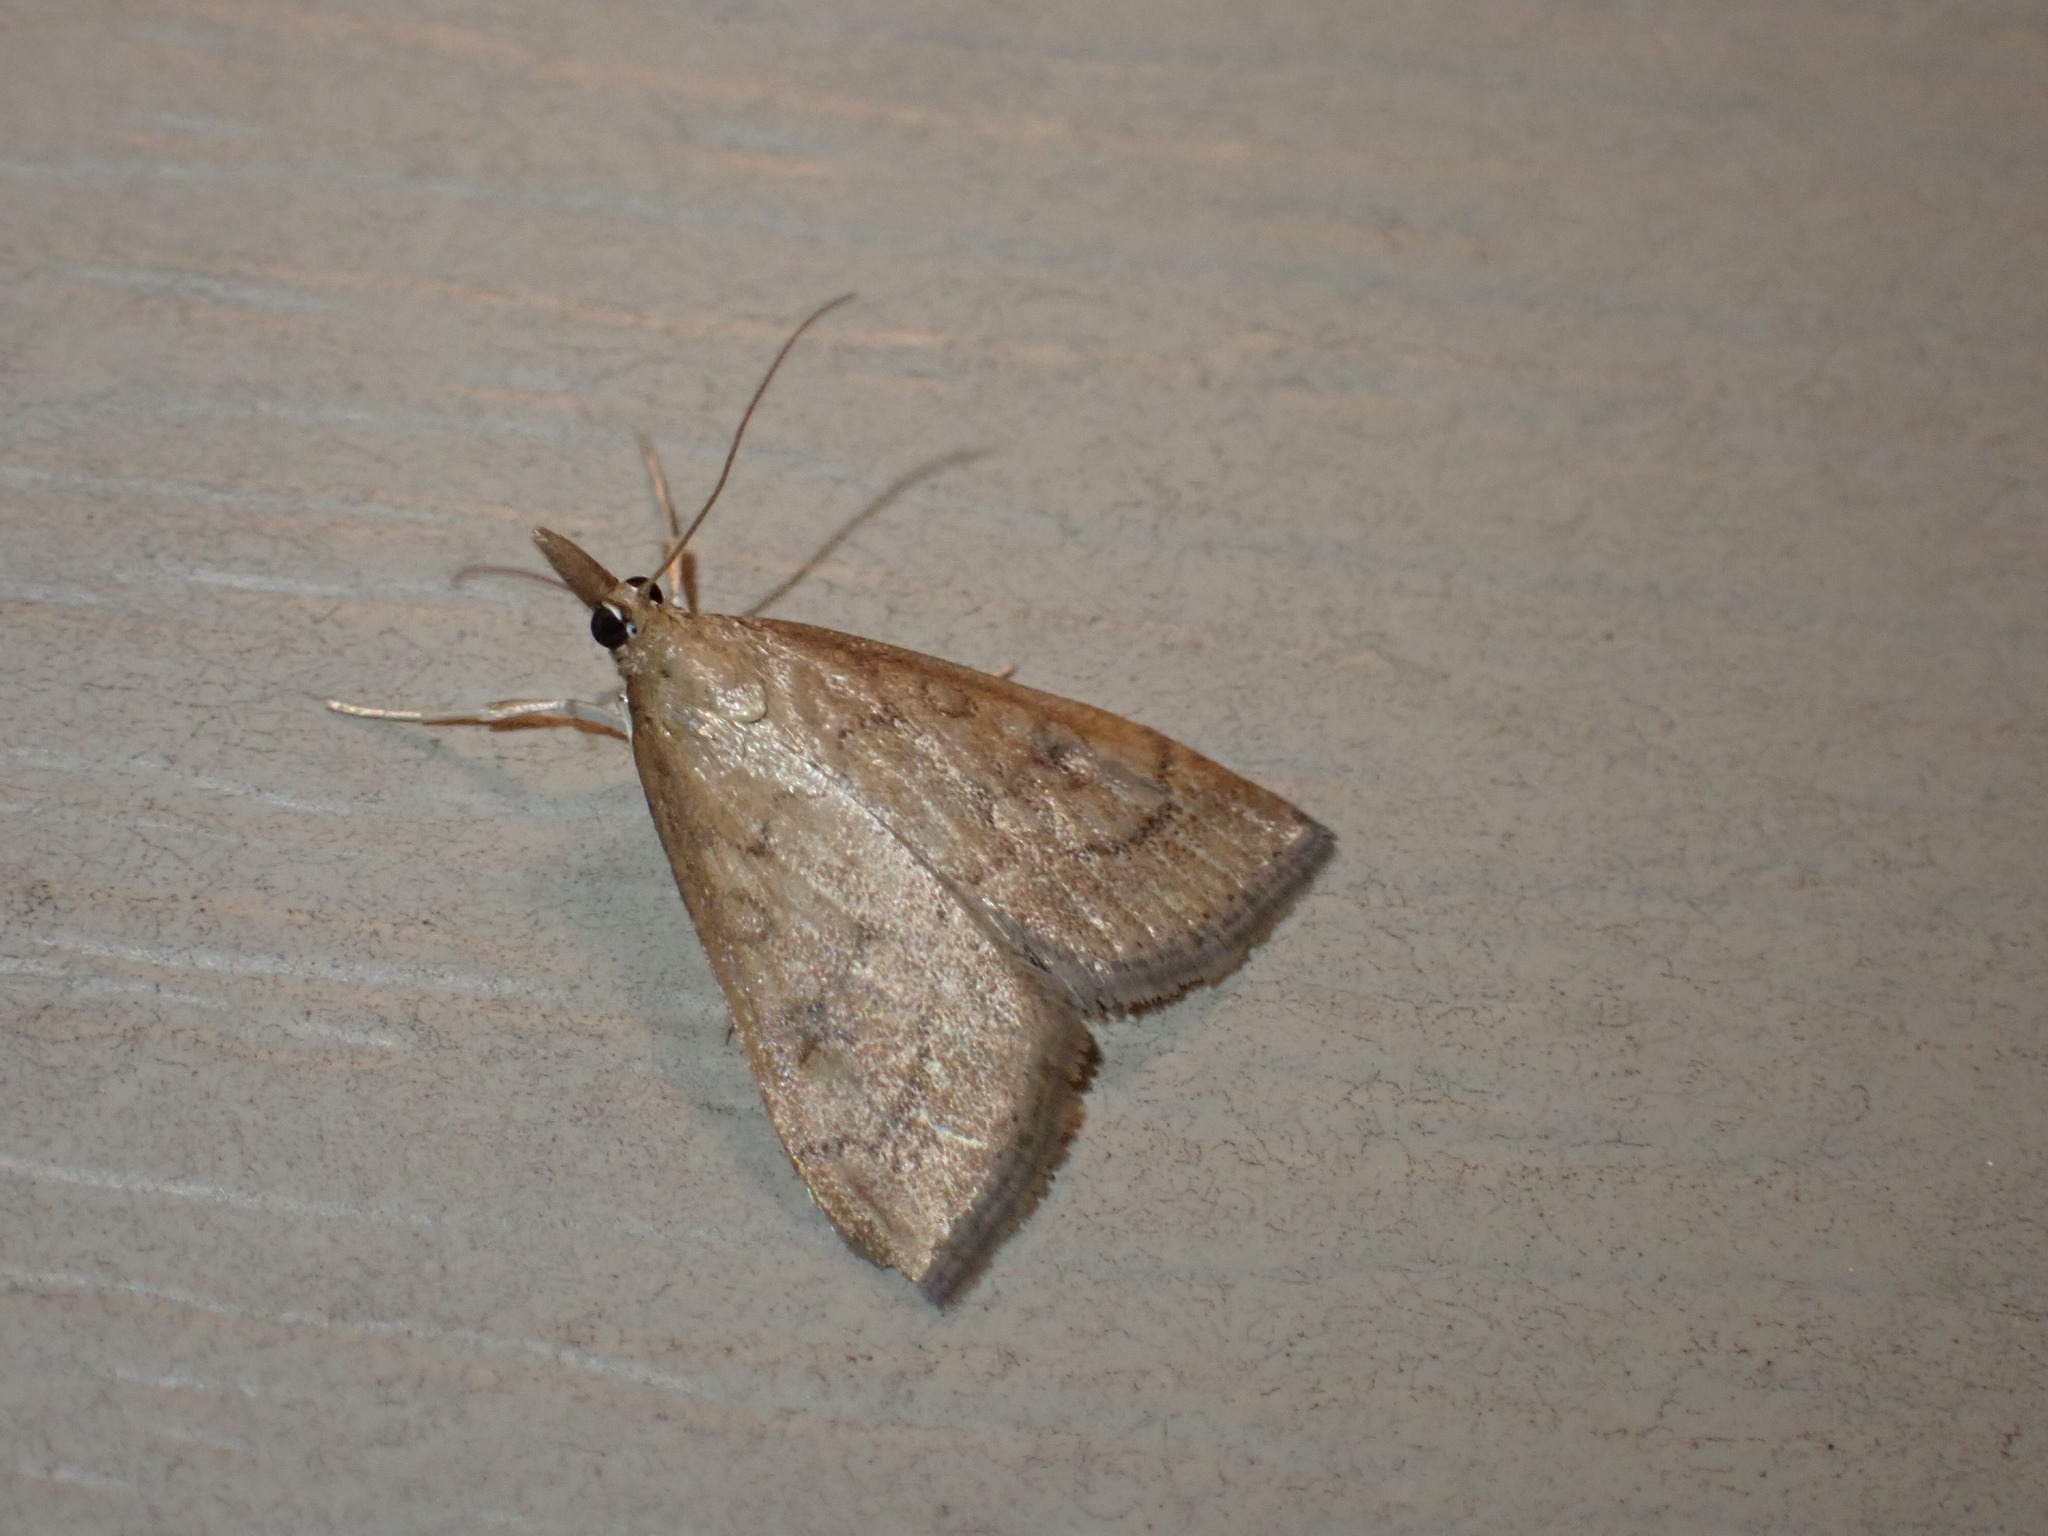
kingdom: Animalia
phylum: Arthropoda
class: Insecta
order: Lepidoptera
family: Crambidae
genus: Udea
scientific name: Udea rubigalis
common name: Celery leaftier moth
